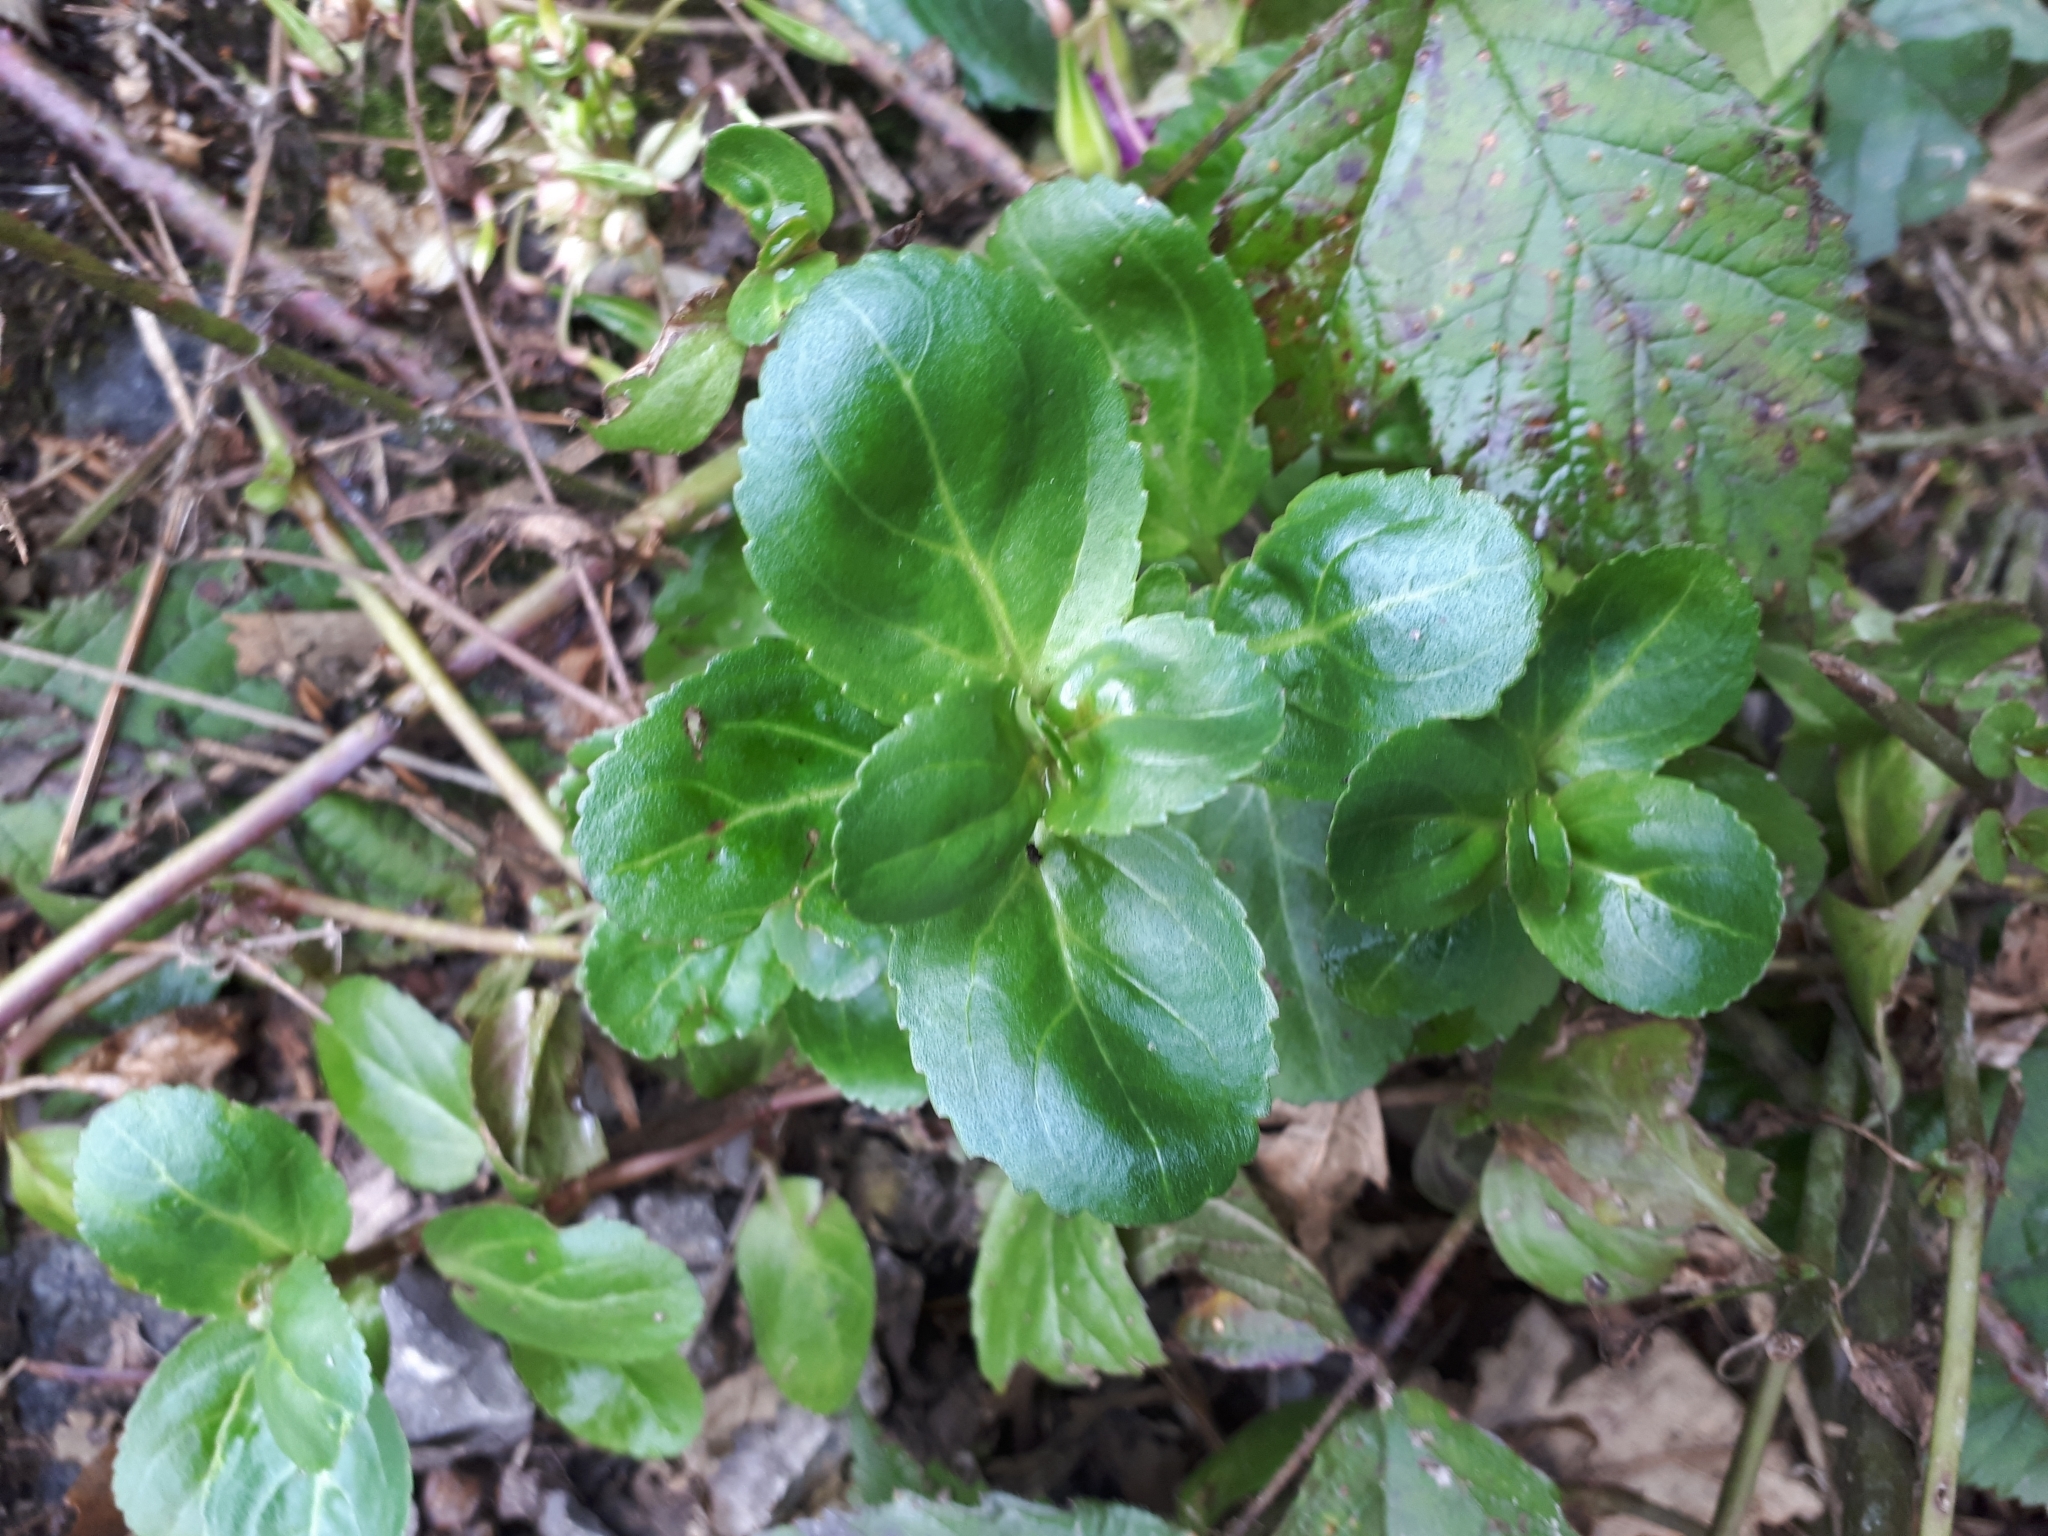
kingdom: Plantae
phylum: Tracheophyta
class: Magnoliopsida
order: Lamiales
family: Plantaginaceae
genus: Veronica
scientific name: Veronica beccabunga
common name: Brooklime
